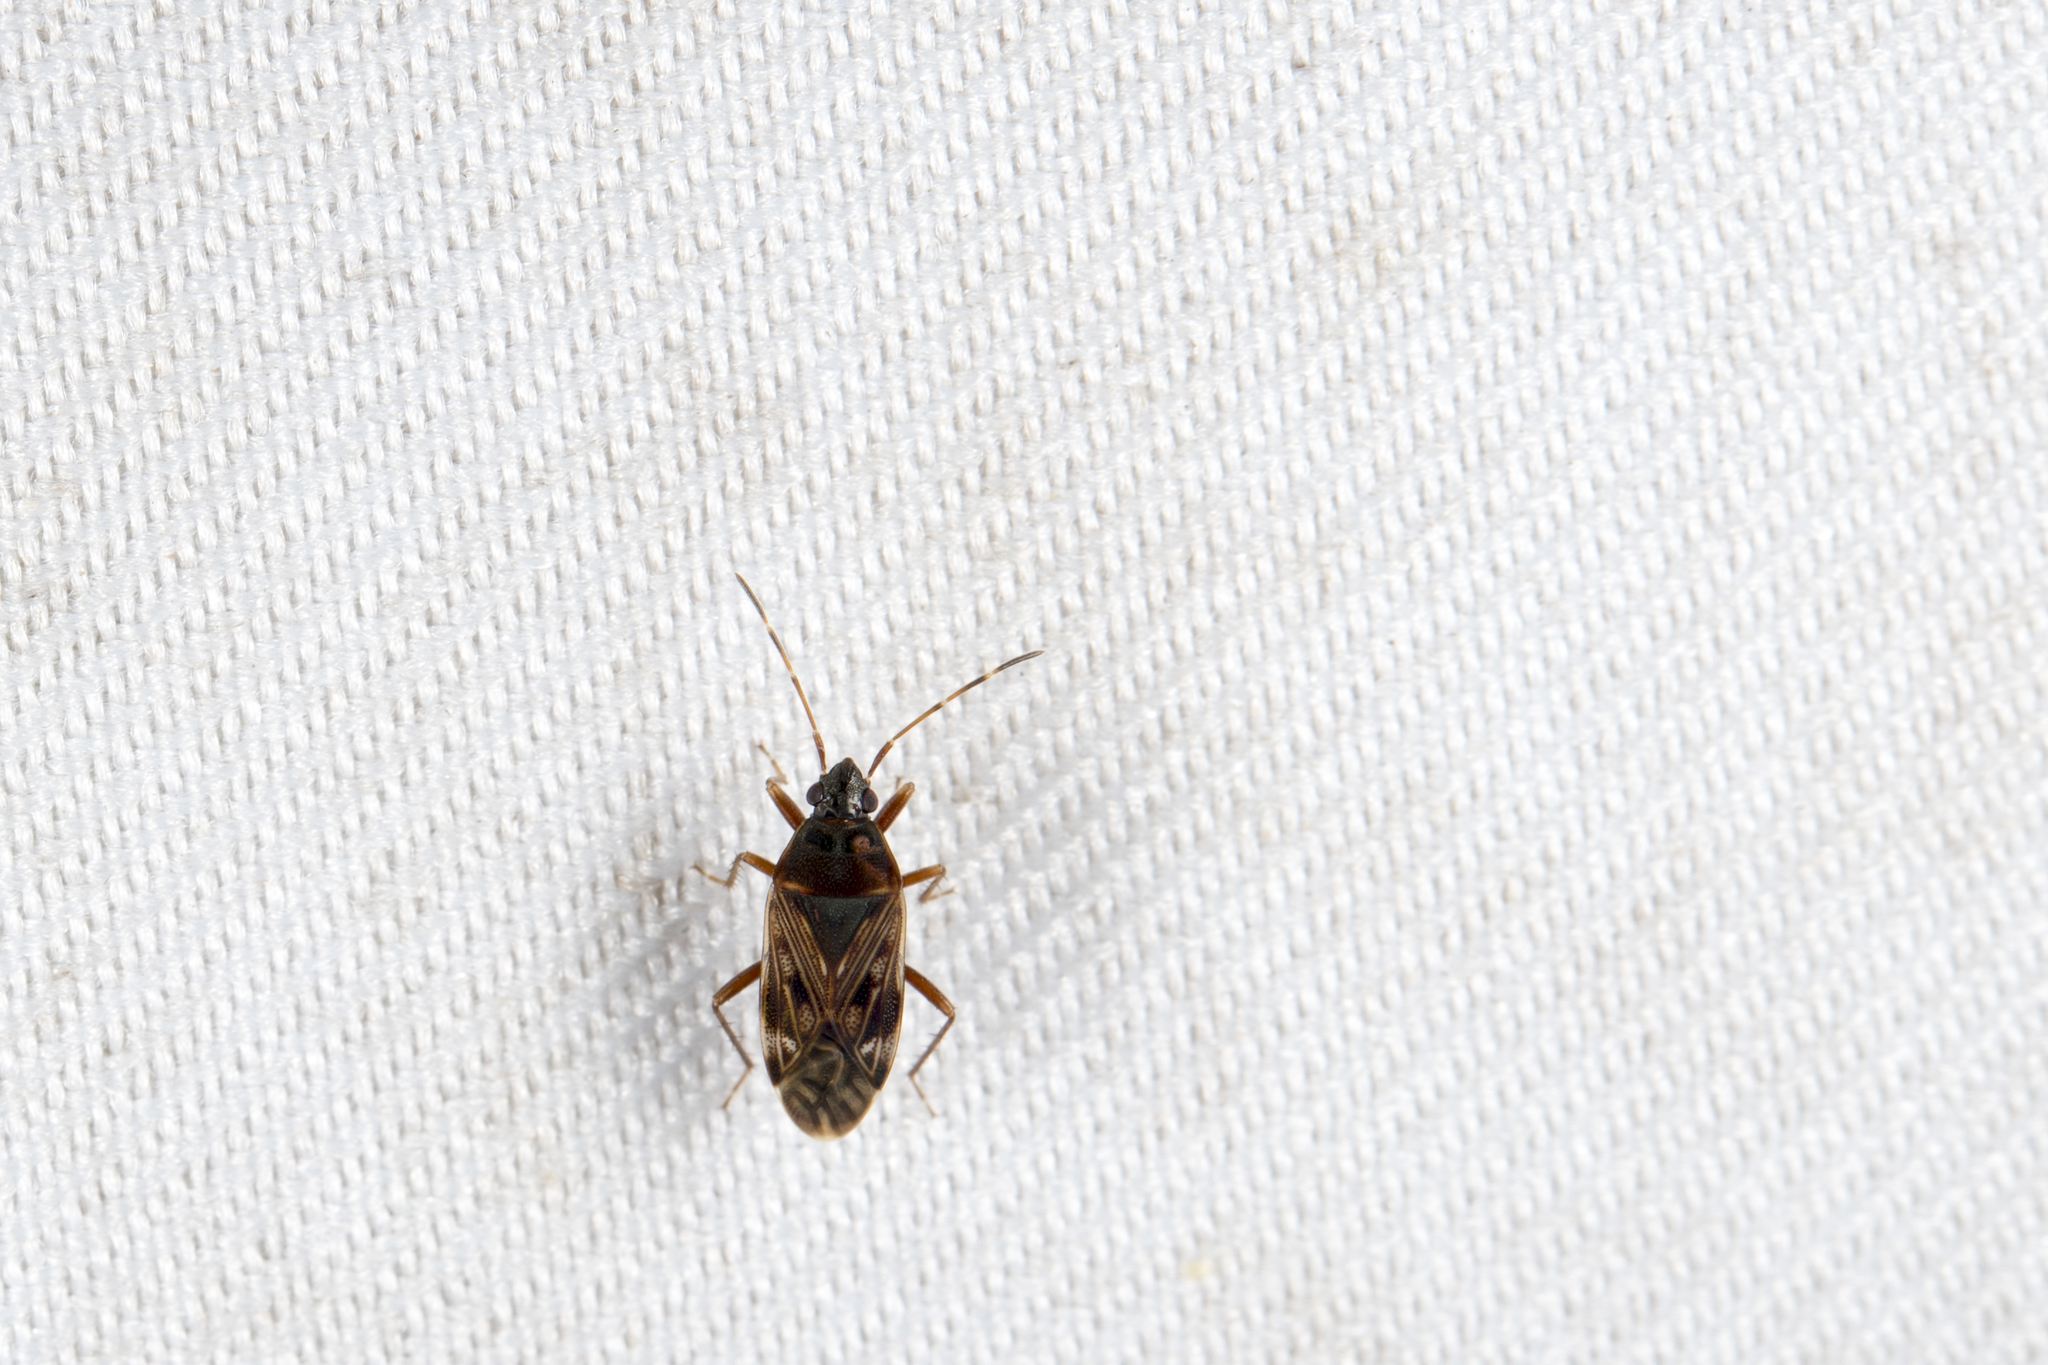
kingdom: Animalia
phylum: Arthropoda
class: Insecta
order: Hemiptera
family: Rhyparochromidae
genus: Neolethaeus
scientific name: Neolethaeus dallasi
